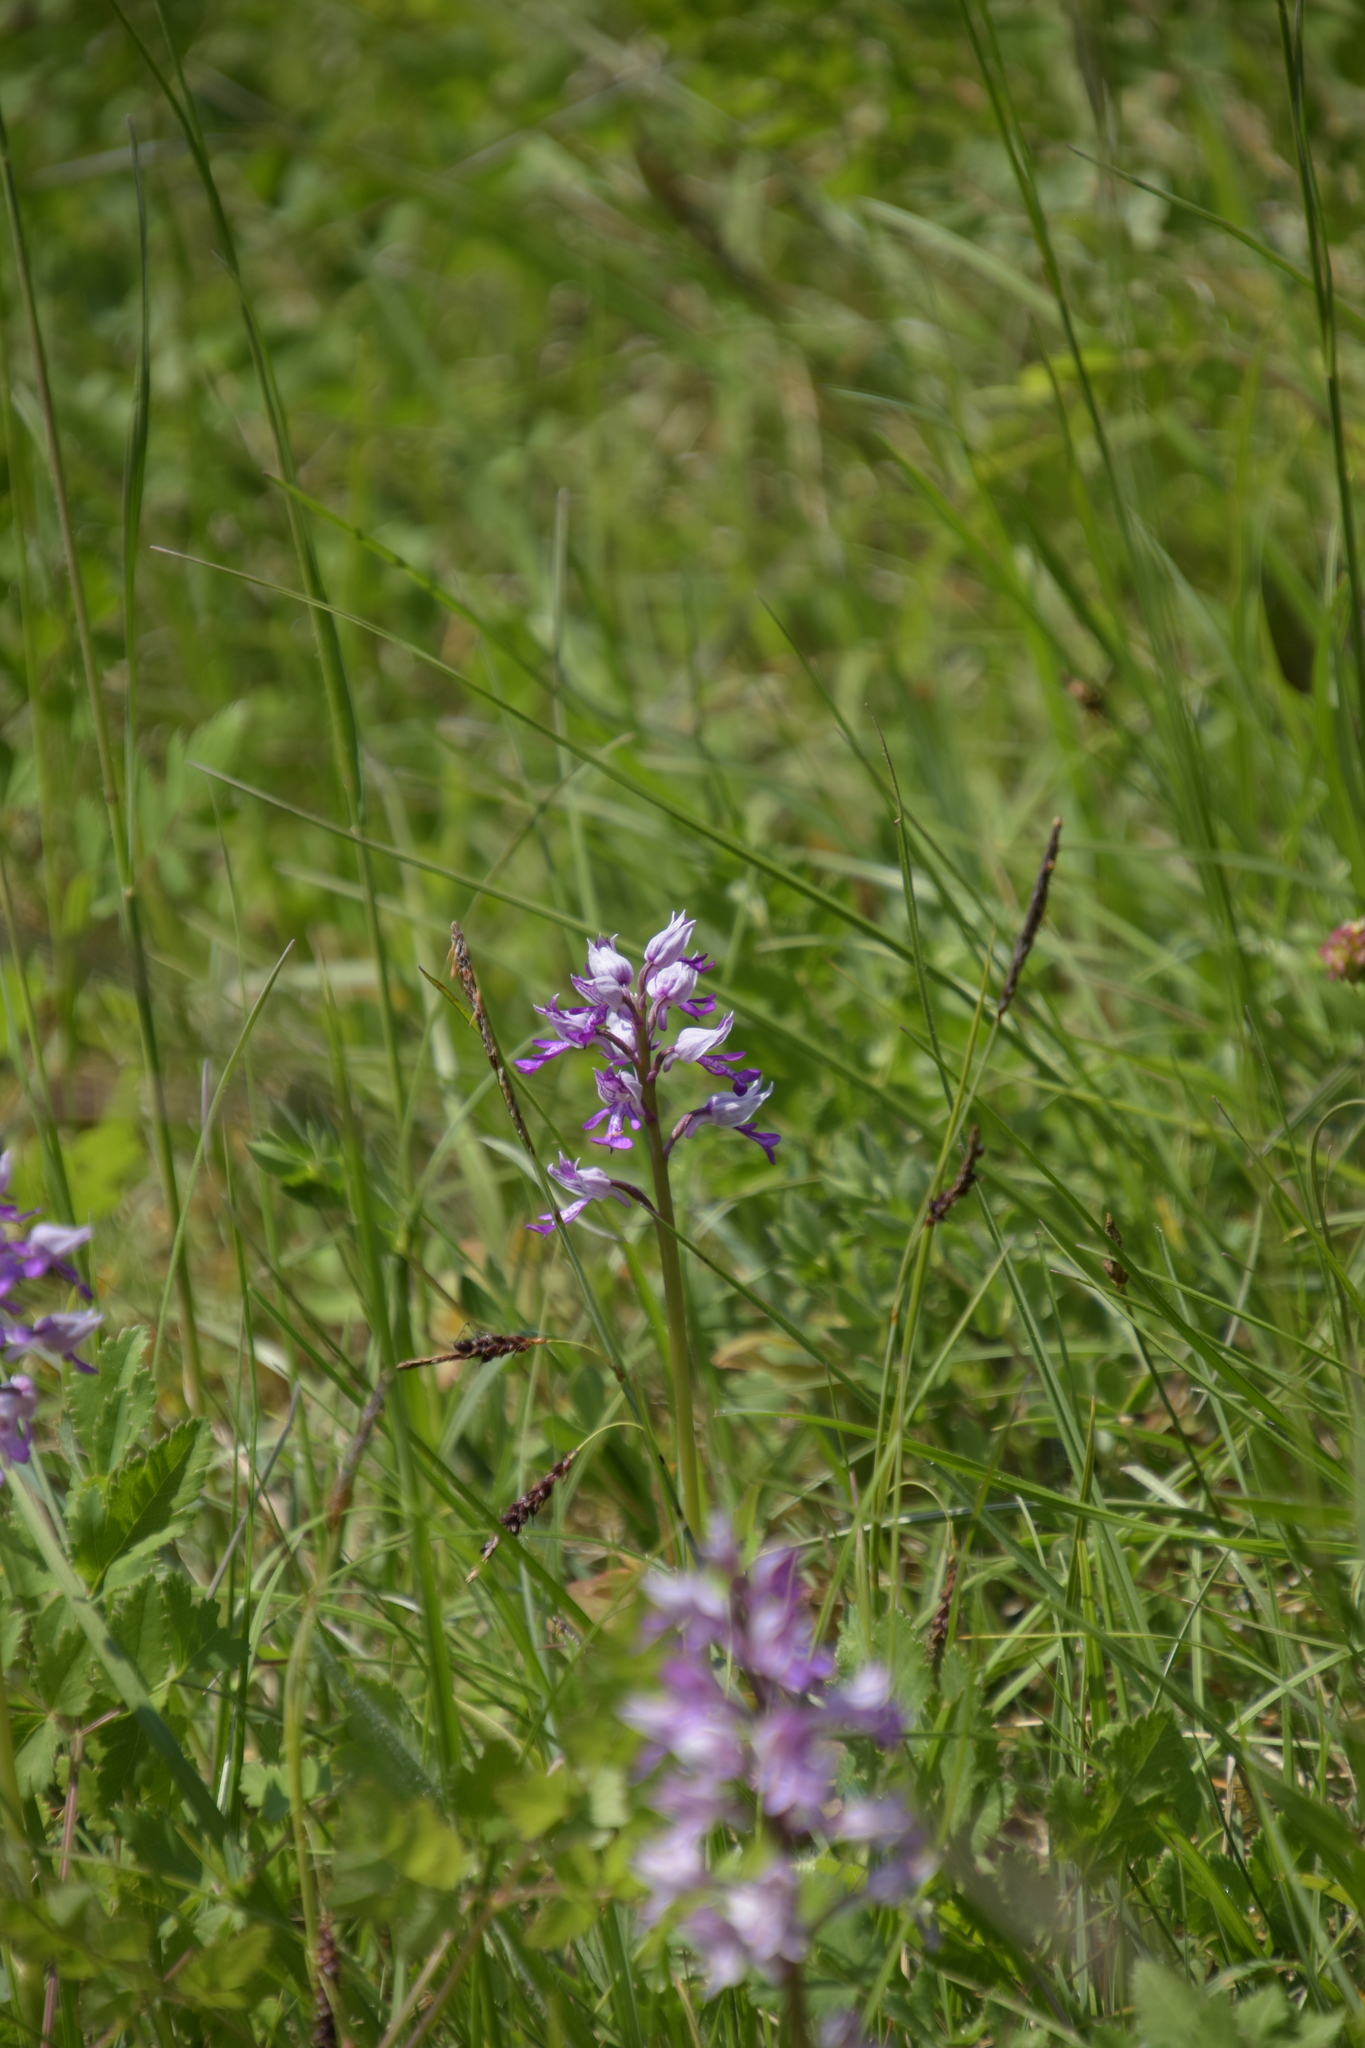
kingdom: Plantae
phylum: Tracheophyta
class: Liliopsida
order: Asparagales
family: Orchidaceae
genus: Orchis
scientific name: Orchis militaris
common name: Military orchid
